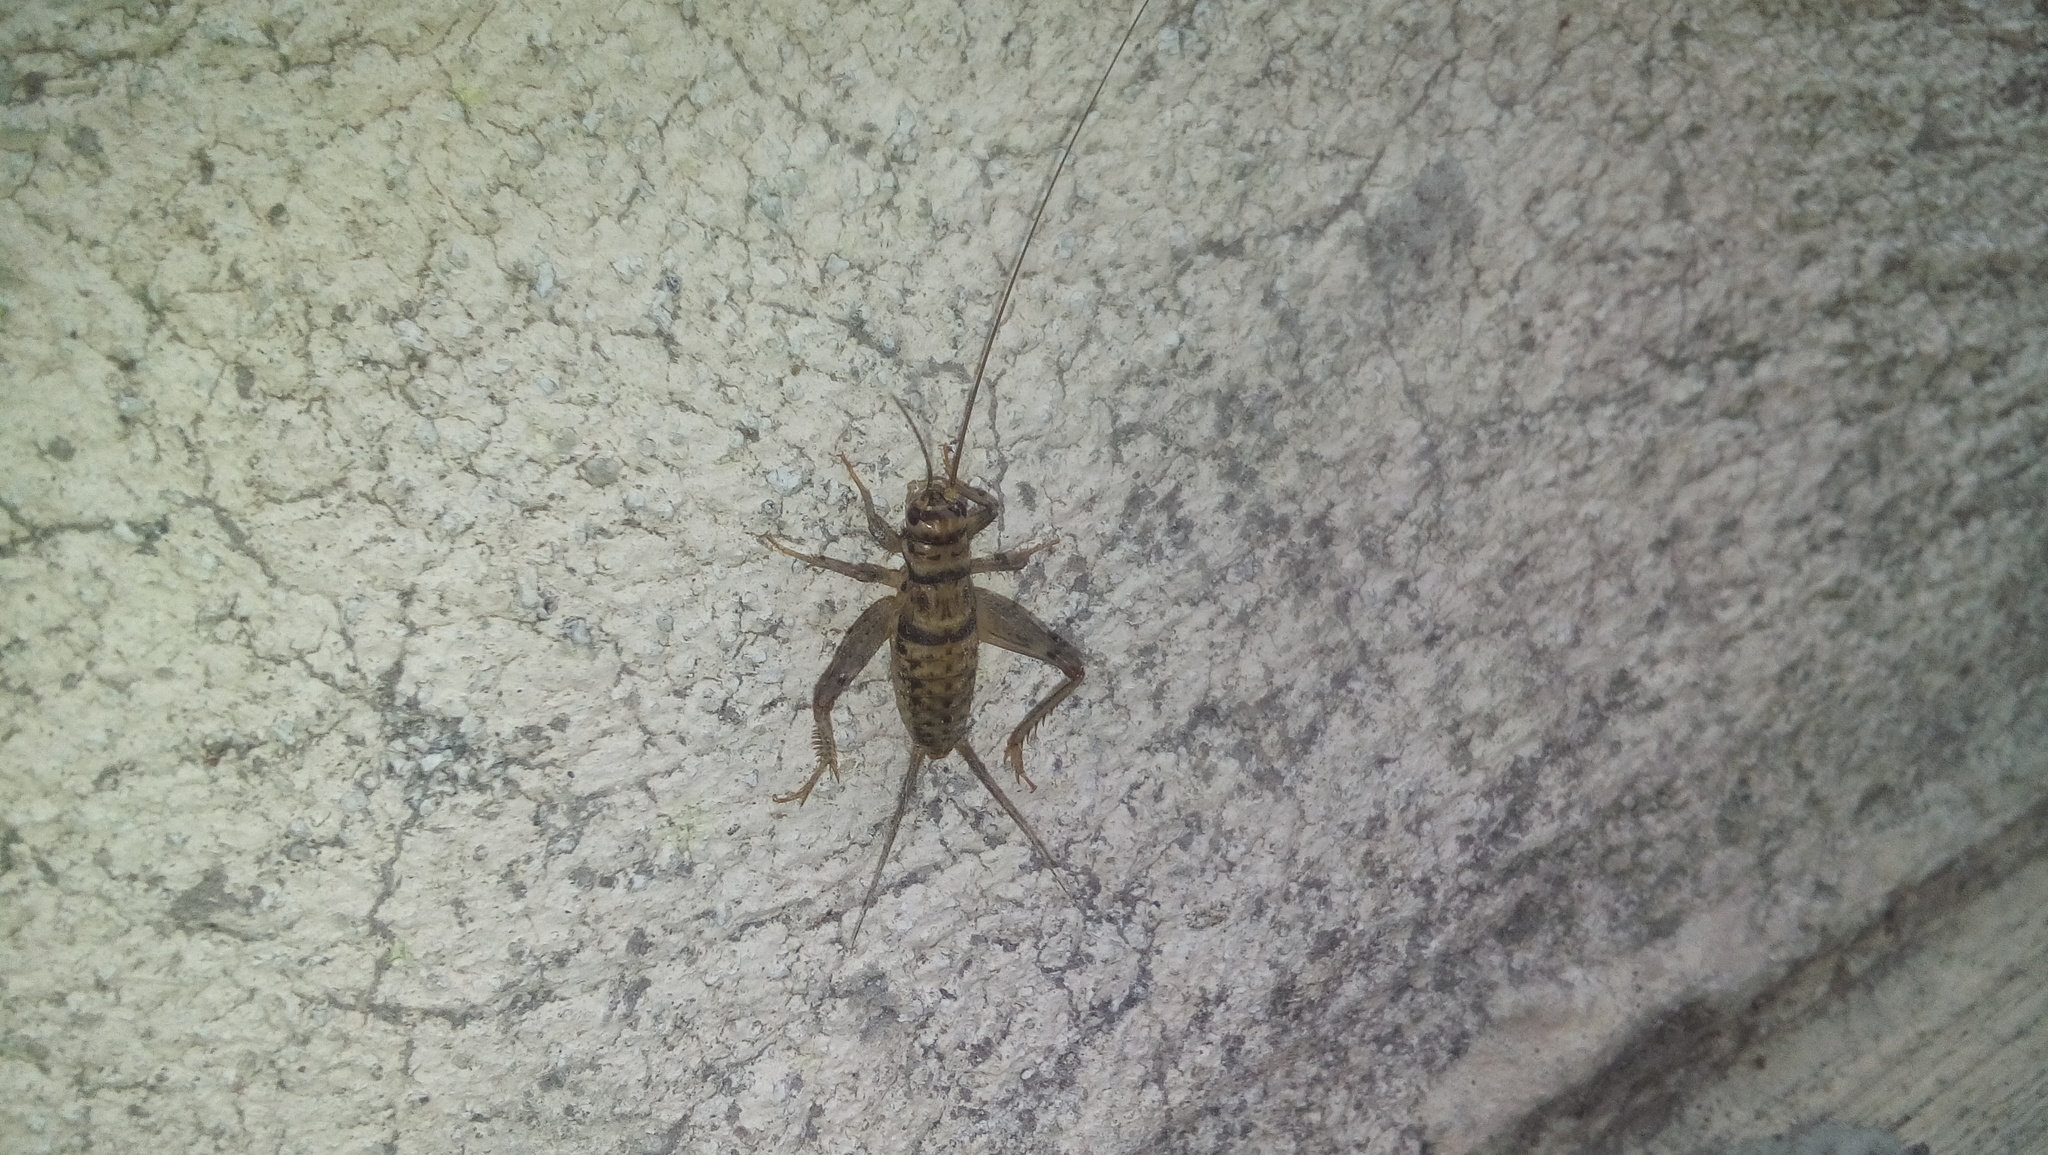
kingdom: Animalia
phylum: Arthropoda
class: Insecta
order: Orthoptera
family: Gryllidae
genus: Gryllodes
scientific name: Gryllodes sigillatus
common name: Tropical house cricket
